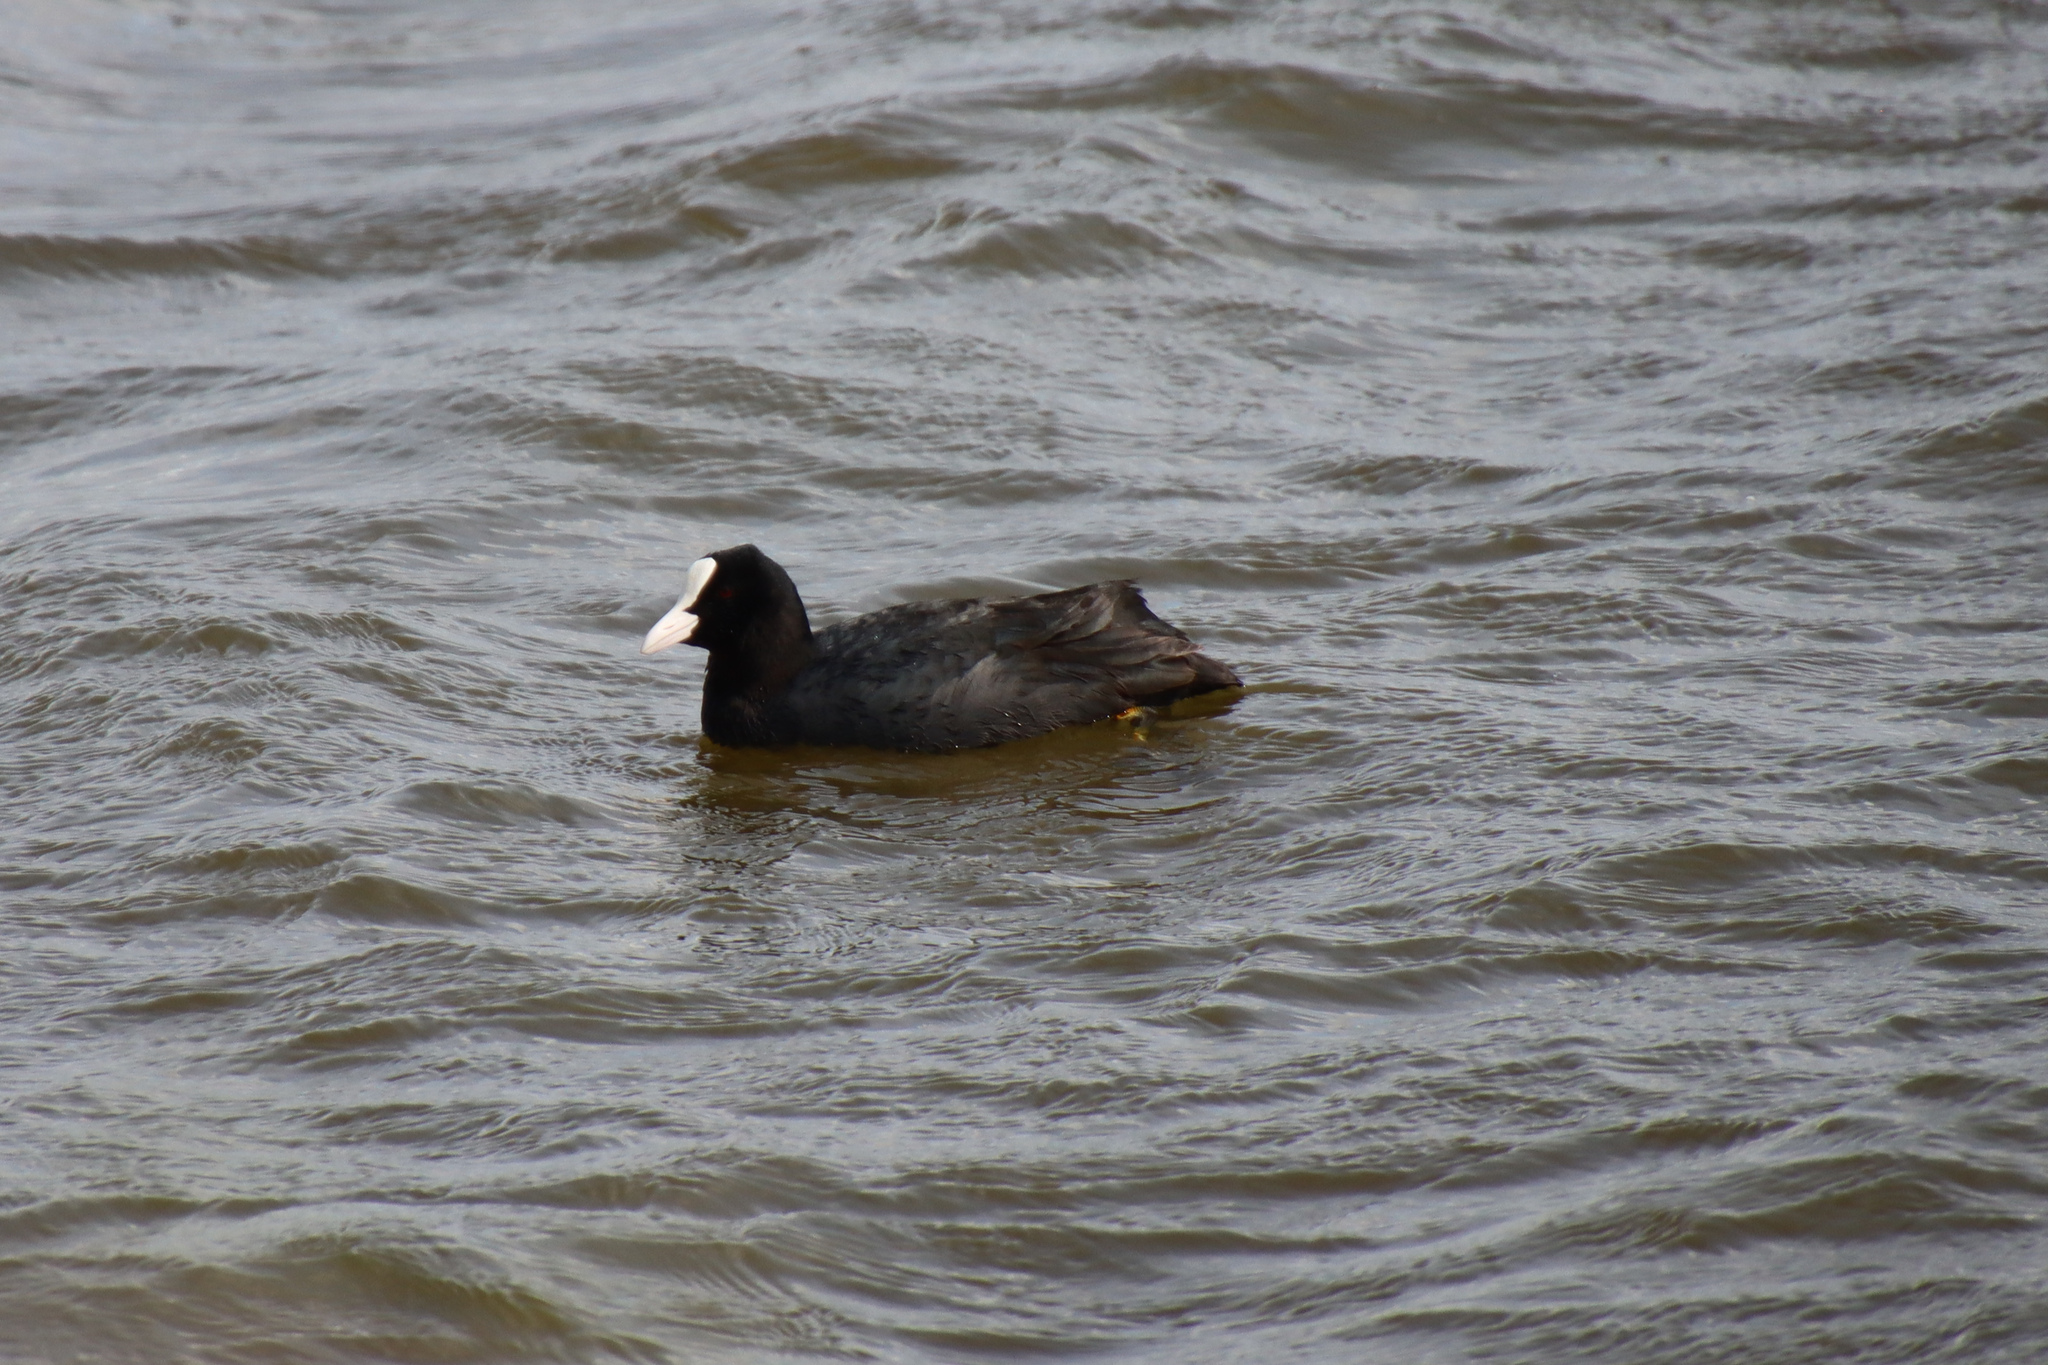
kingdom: Animalia
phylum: Chordata
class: Aves
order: Gruiformes
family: Rallidae
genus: Fulica
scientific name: Fulica atra
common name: Eurasian coot
